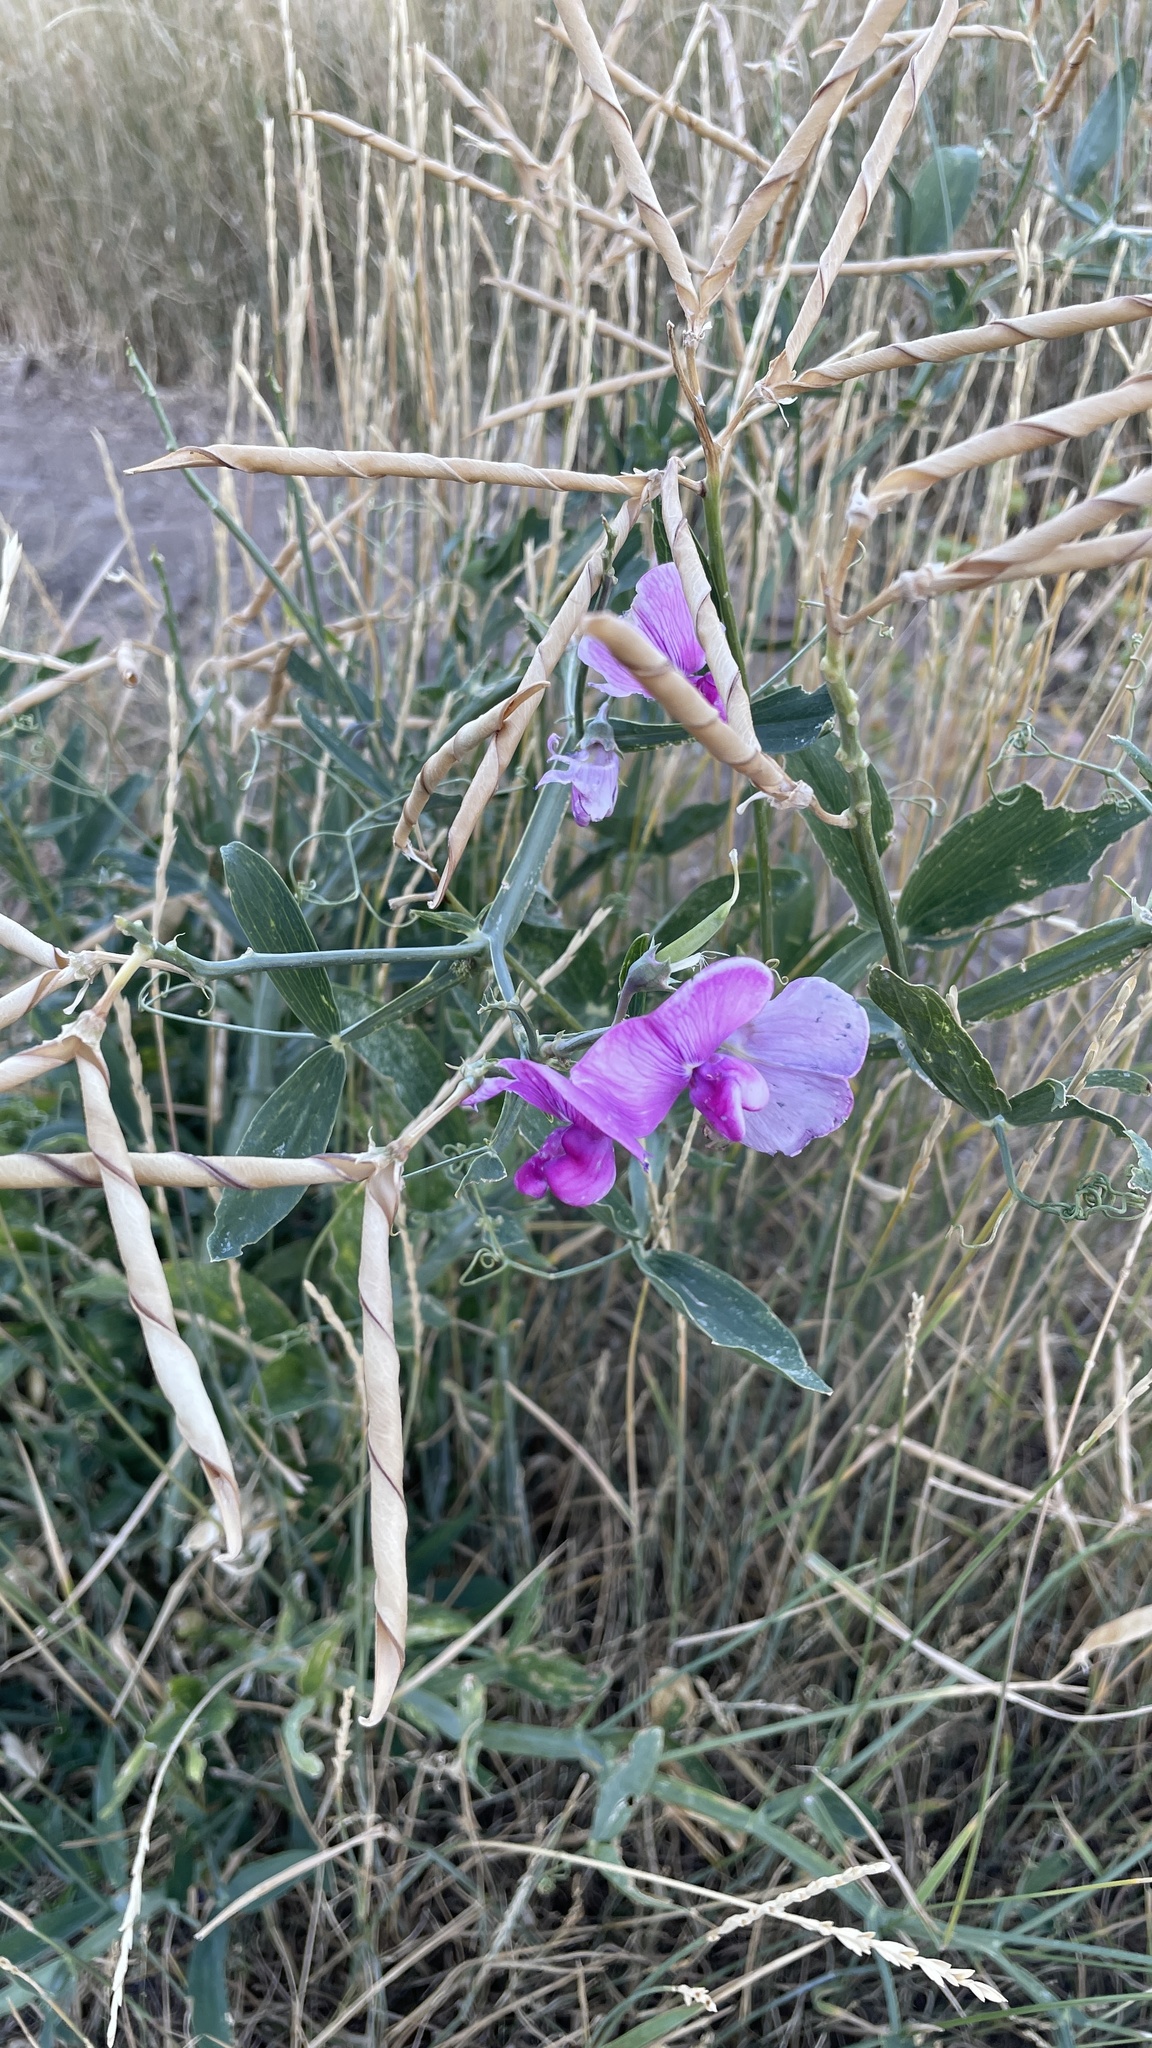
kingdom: Plantae
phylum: Tracheophyta
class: Magnoliopsida
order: Fabales
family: Fabaceae
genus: Lathyrus
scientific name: Lathyrus latifolius
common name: Perennial pea
